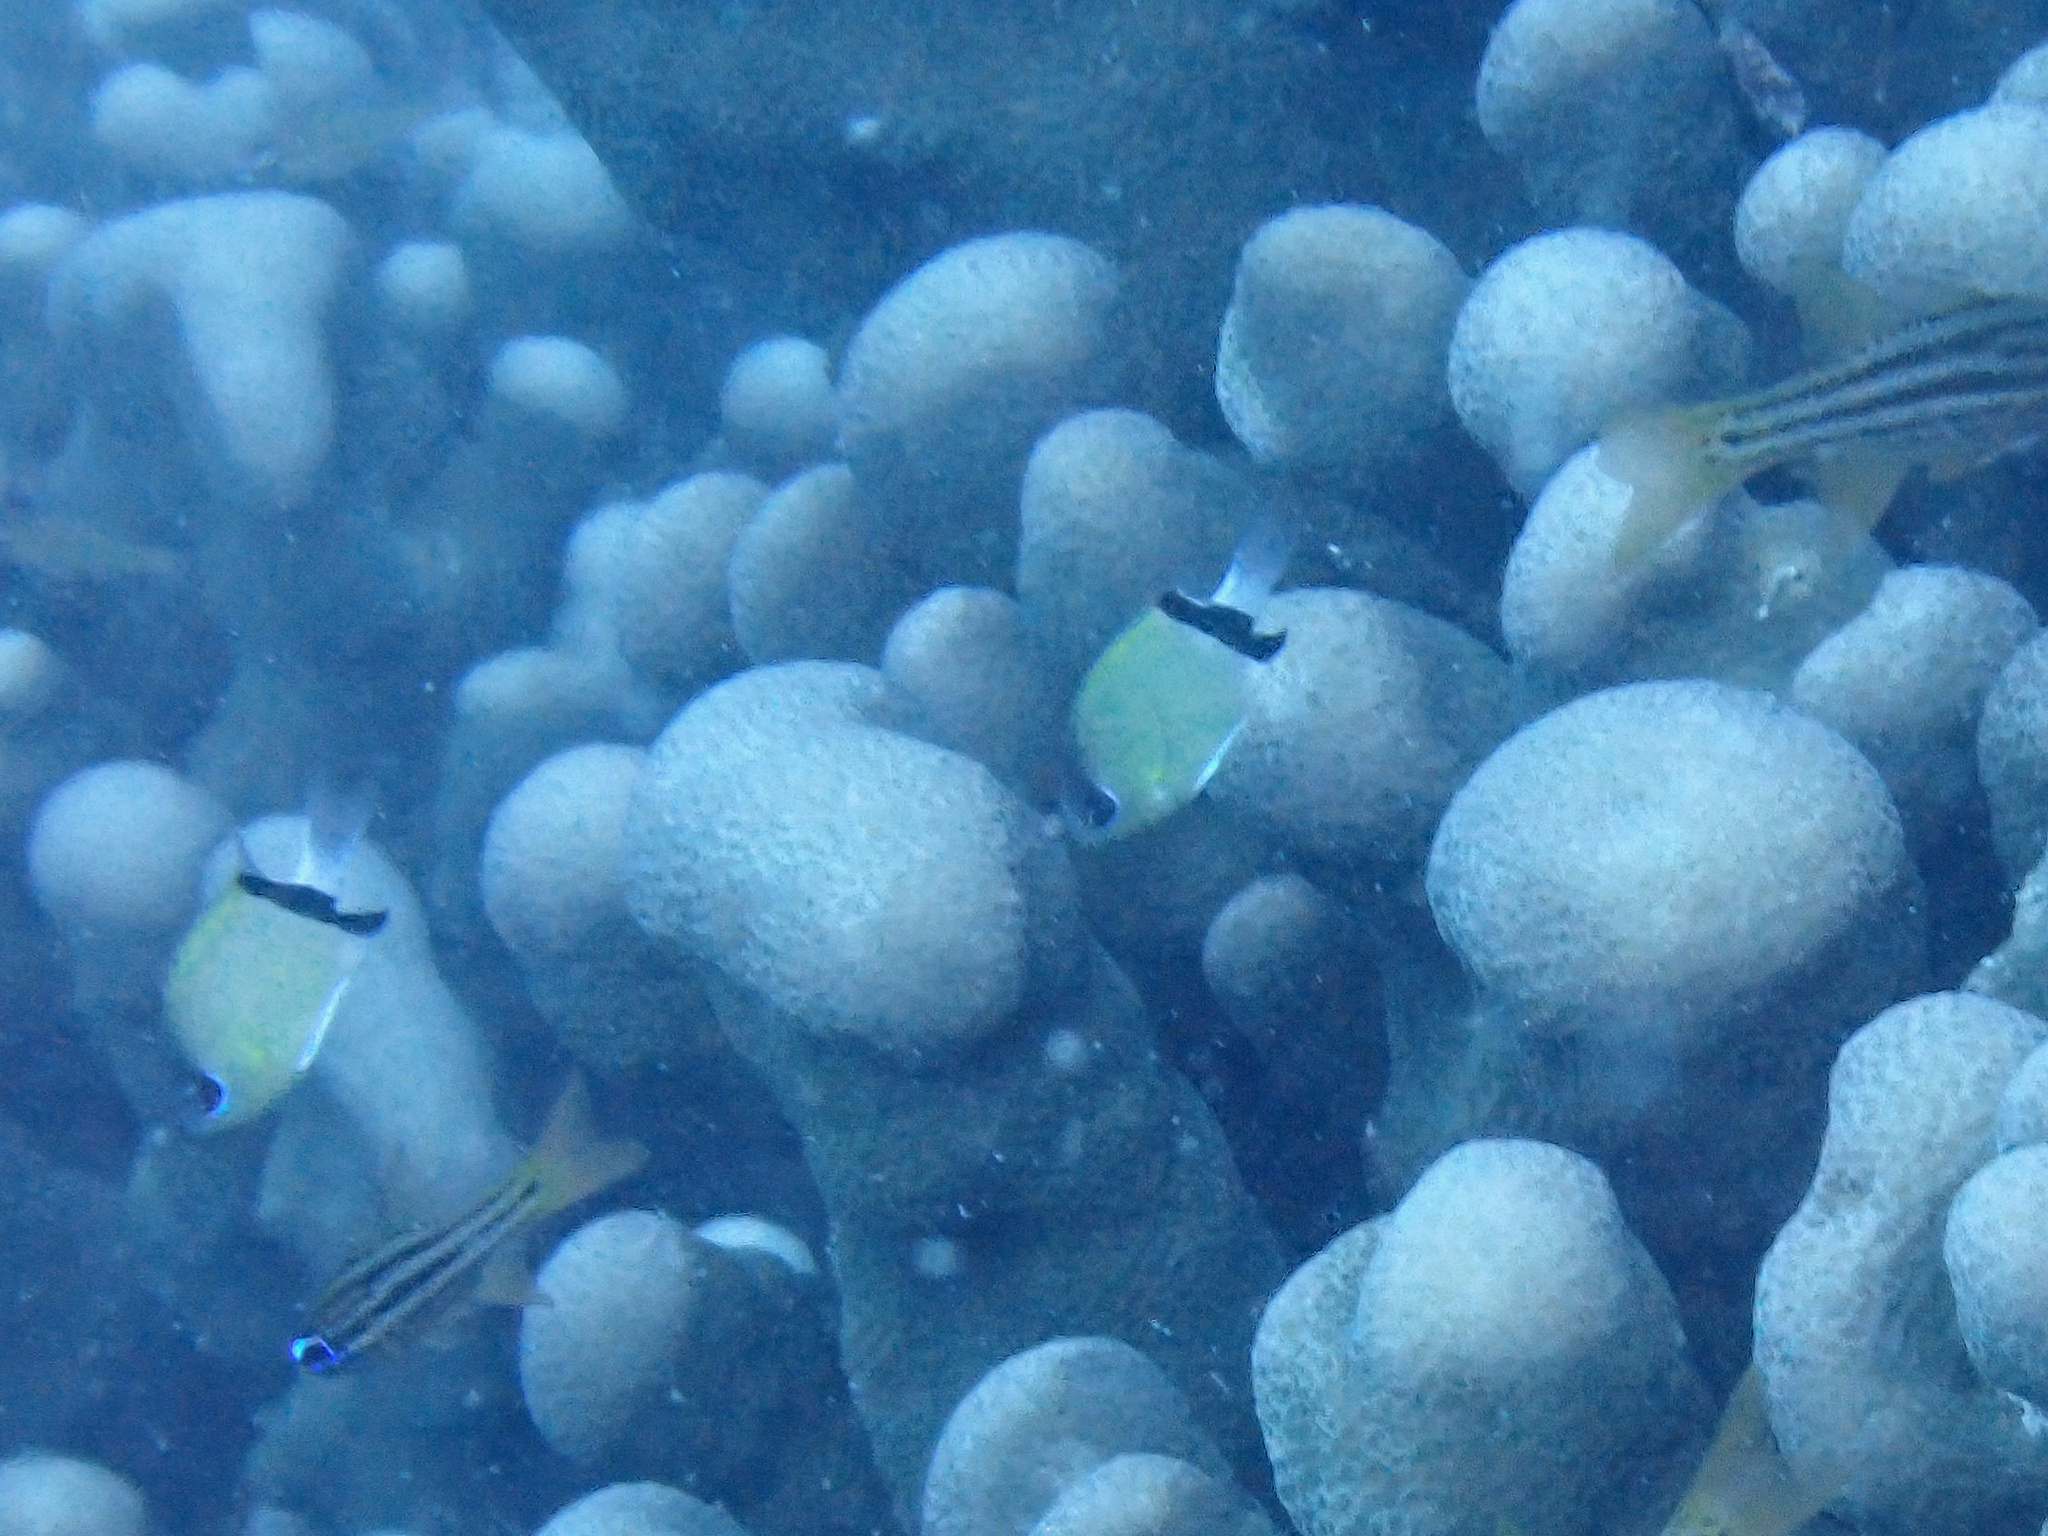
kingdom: Animalia
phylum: Chordata
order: Perciformes
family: Pomacentridae
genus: Chromis
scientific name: Chromis retrofasciata
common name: Black-bar chromis
